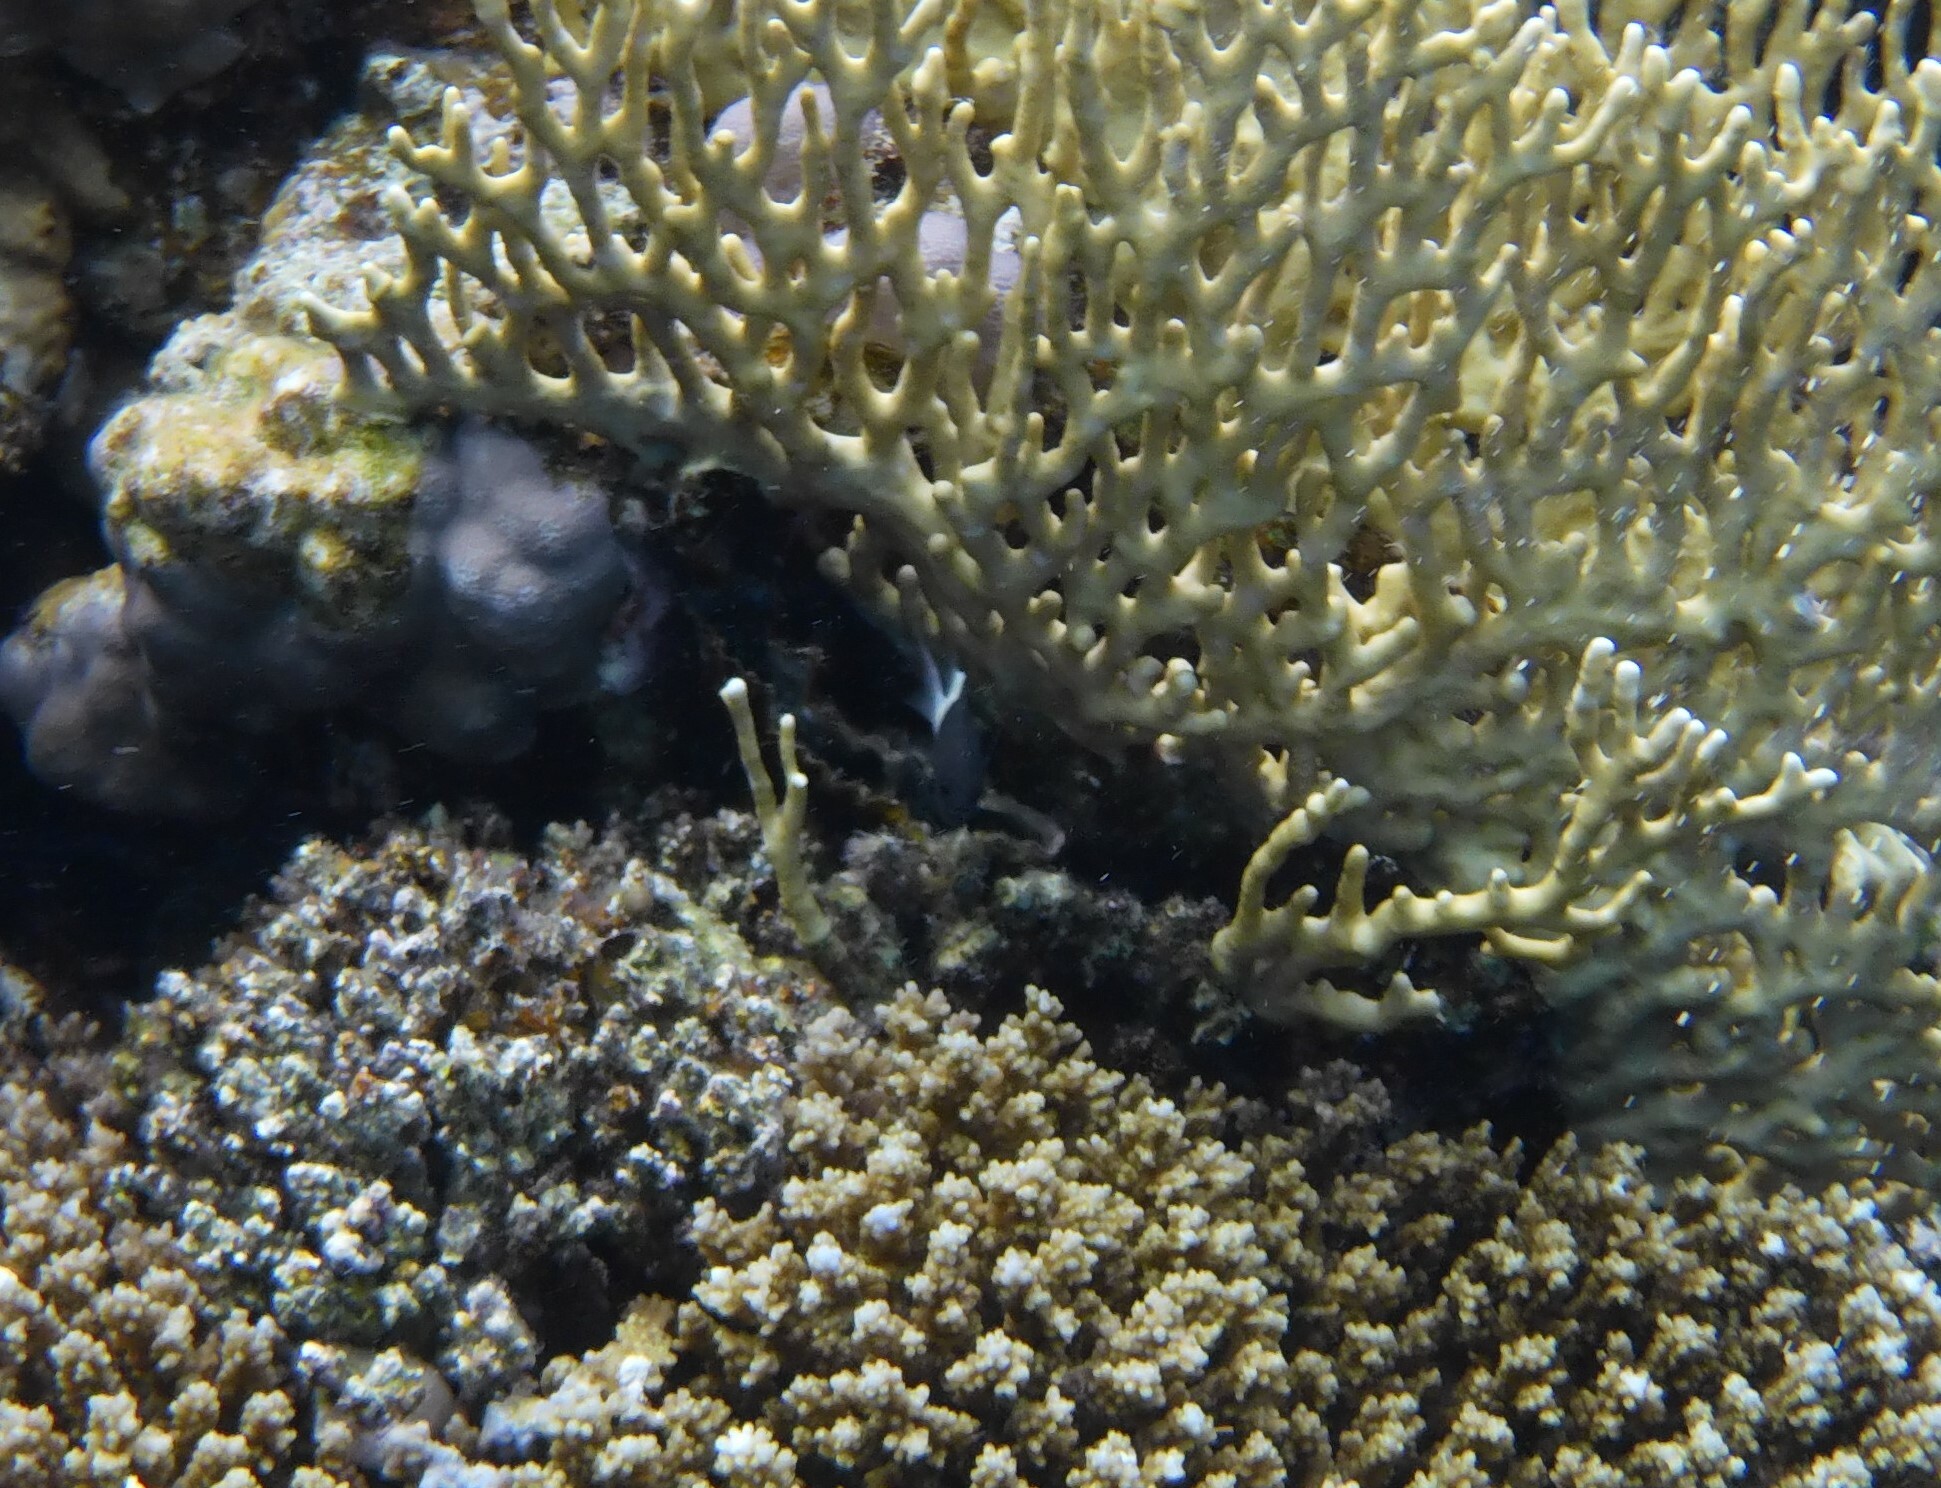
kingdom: Animalia
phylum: Chordata
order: Perciformes
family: Pomacentridae
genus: Chromis
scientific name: Chromis dimidiata
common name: Half-and-half chromis
